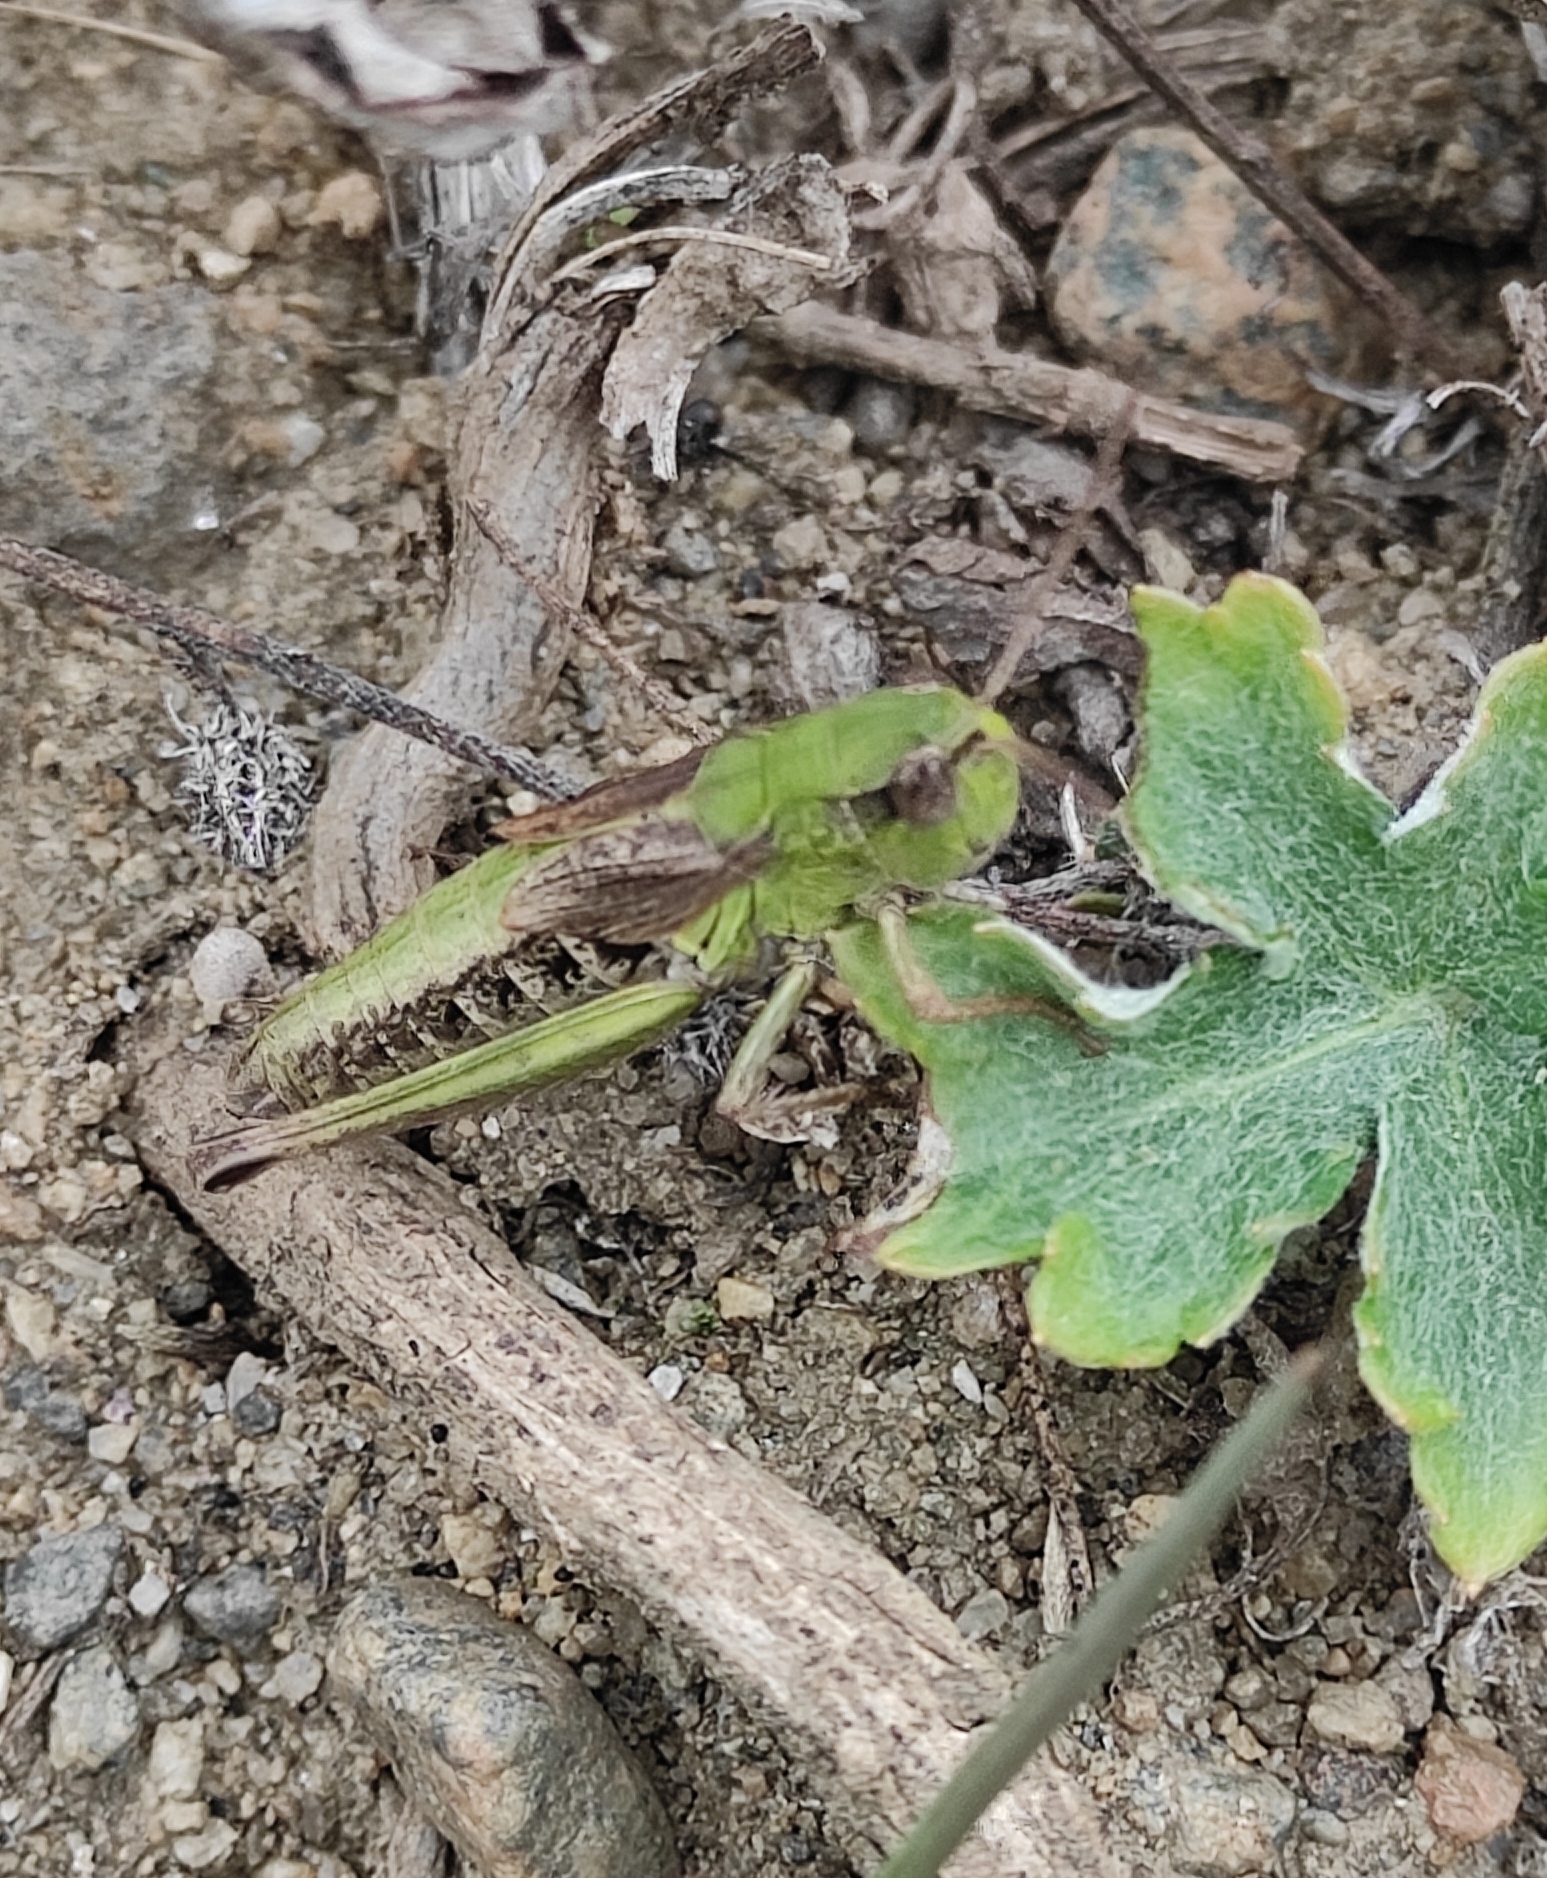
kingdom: Animalia
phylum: Arthropoda
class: Insecta
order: Orthoptera
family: Acrididae
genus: Chorthippus
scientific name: Chorthippus fallax
